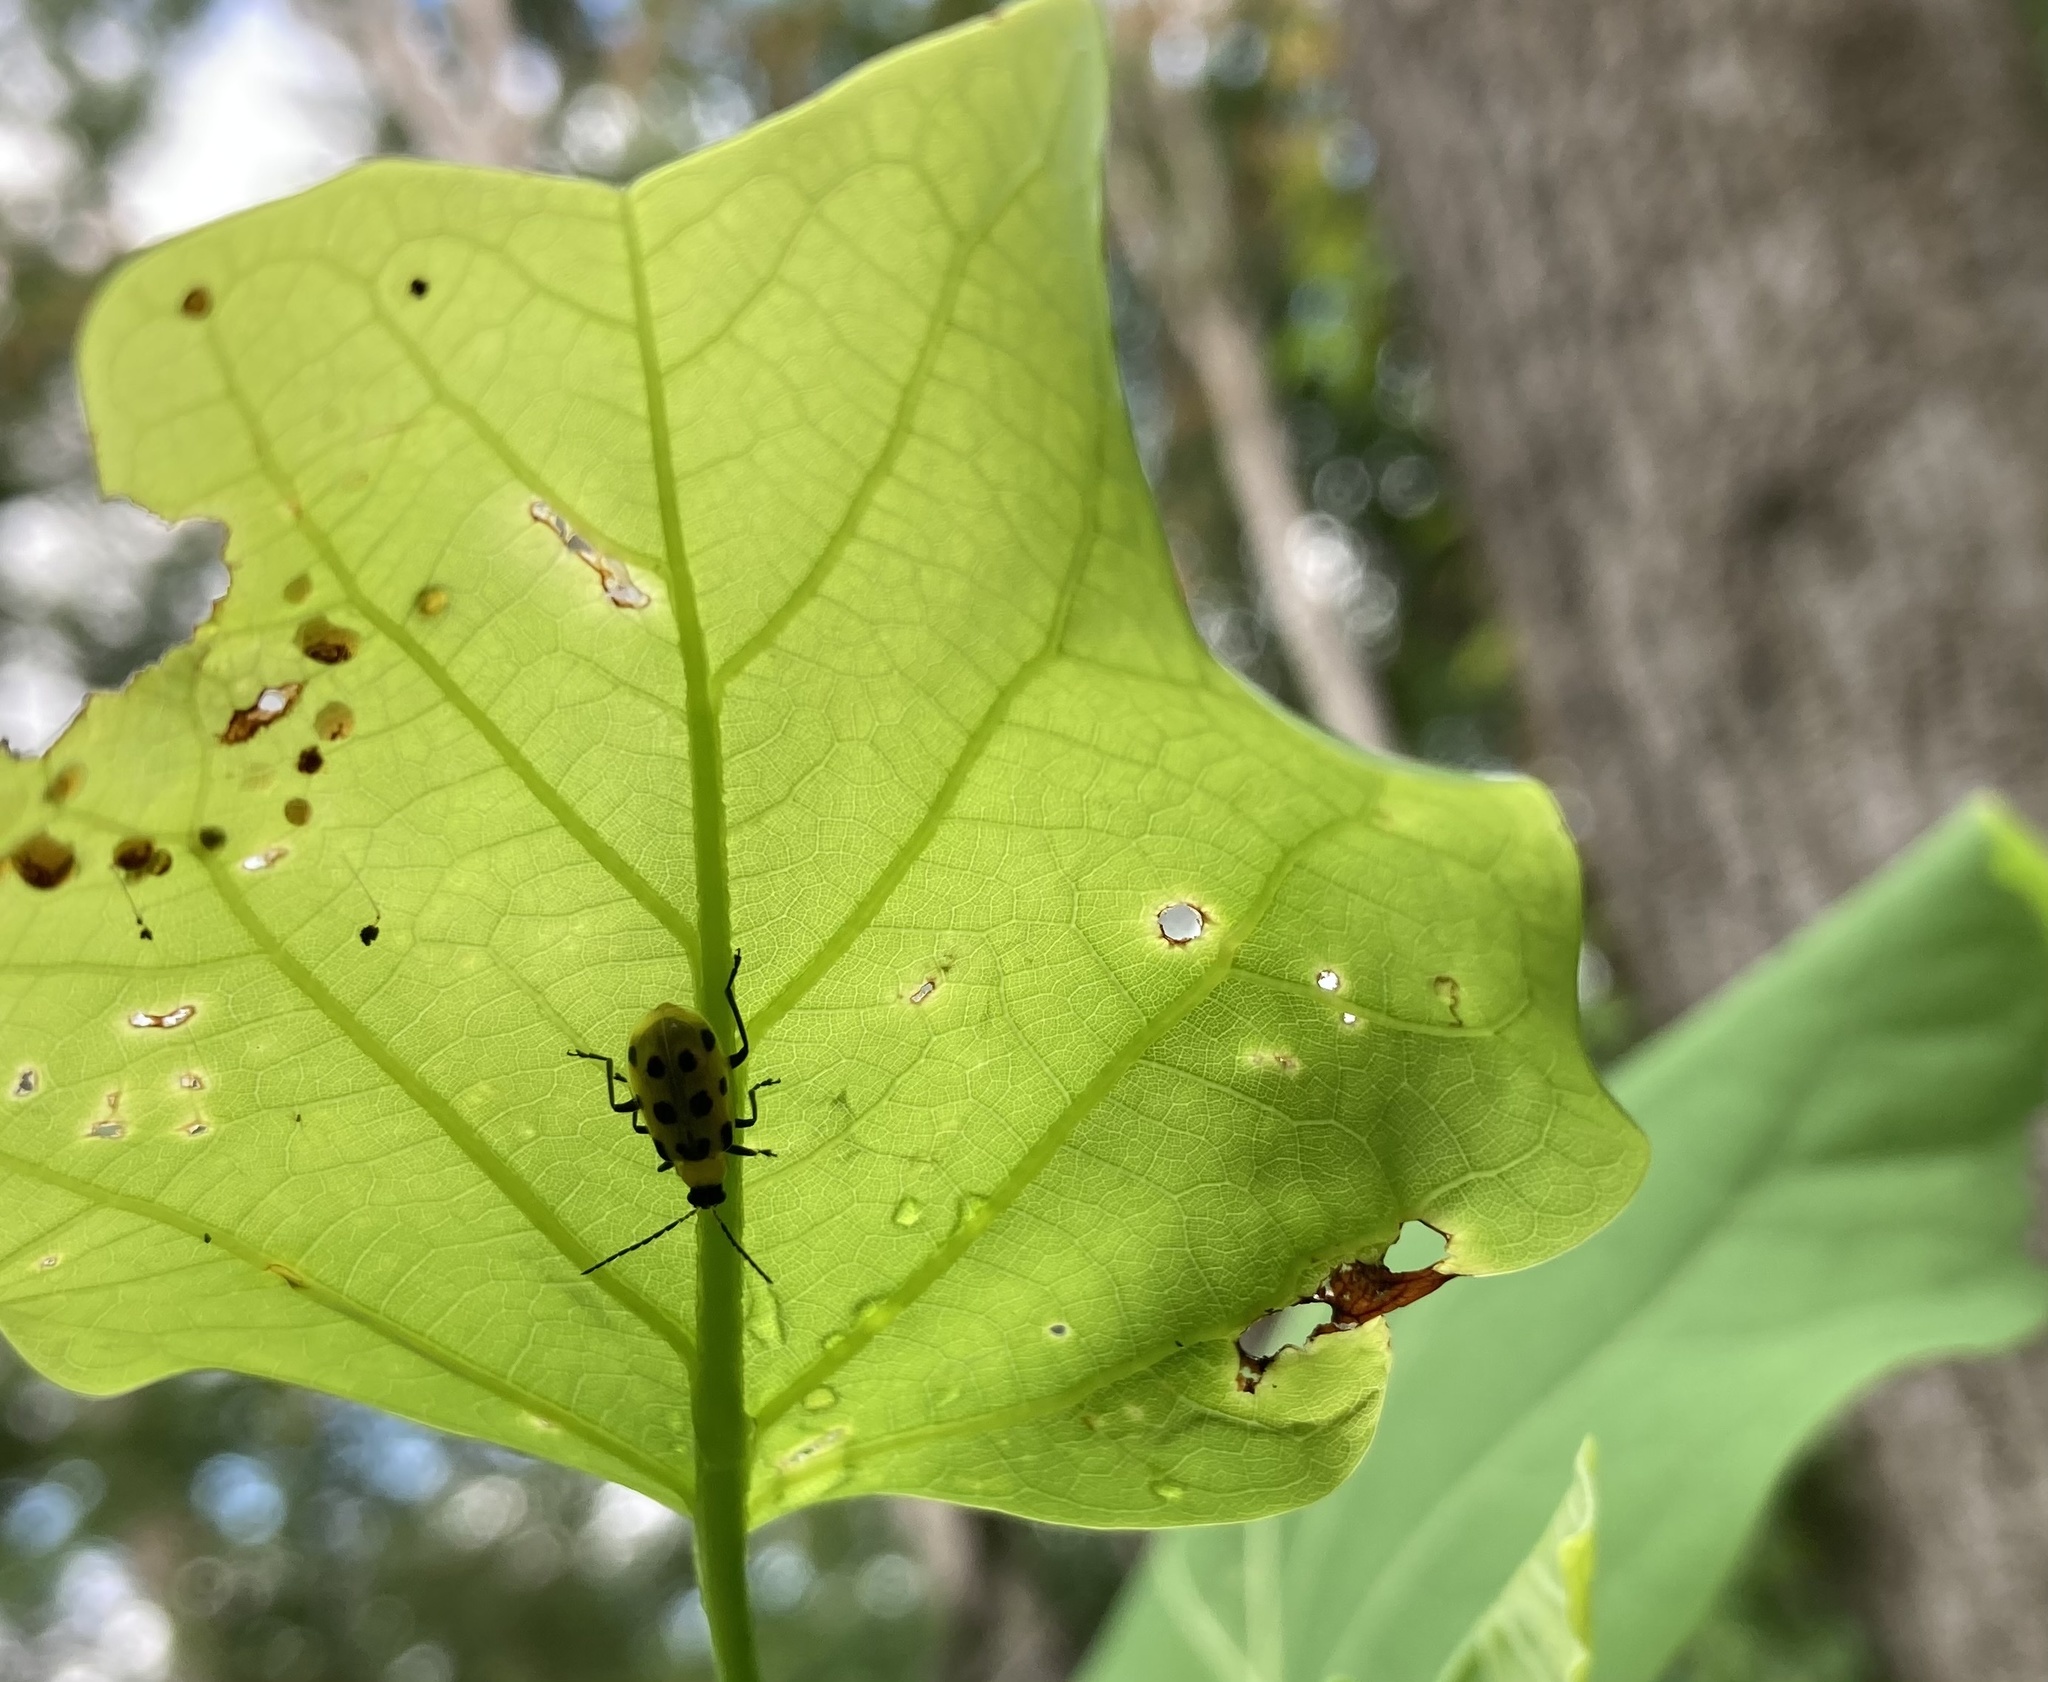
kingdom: Animalia
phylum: Arthropoda
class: Insecta
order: Coleoptera
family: Chrysomelidae
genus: Diabrotica
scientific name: Diabrotica undecimpunctata
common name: Spotted cucumber beetle
